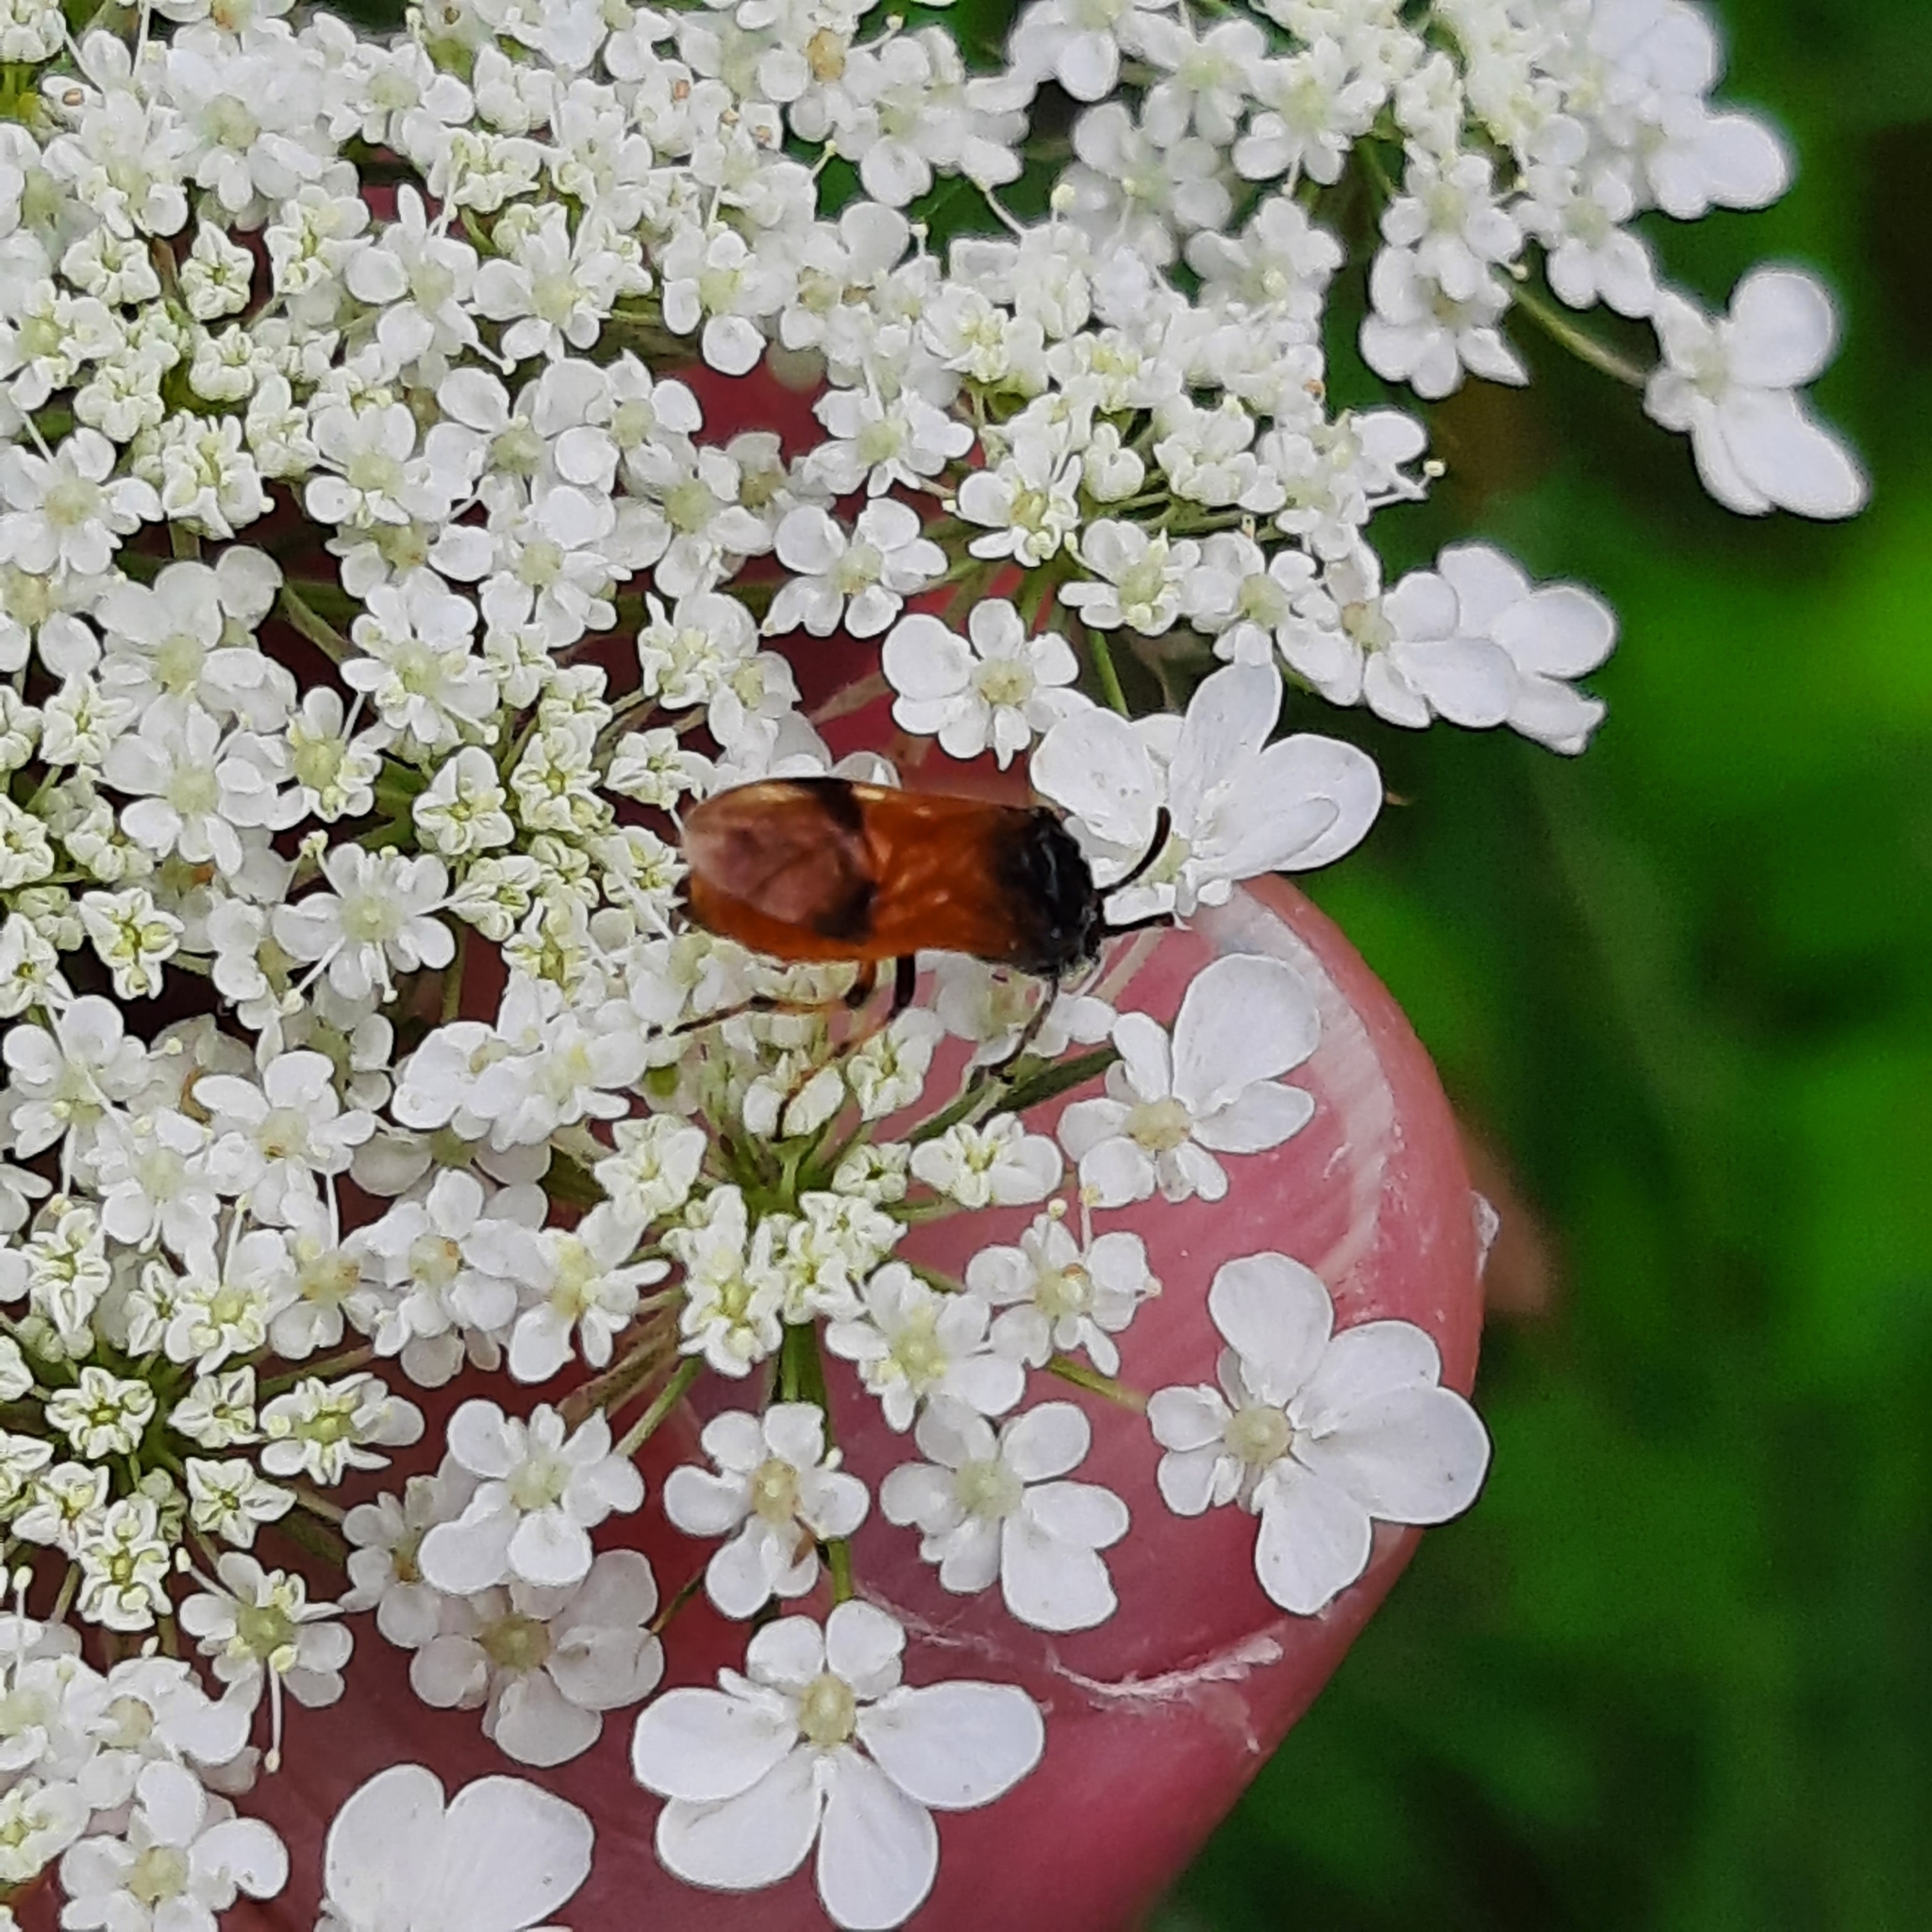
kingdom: Animalia
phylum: Arthropoda
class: Insecta
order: Hymenoptera
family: Argidae
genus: Arge
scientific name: Arge cyanocrocea
